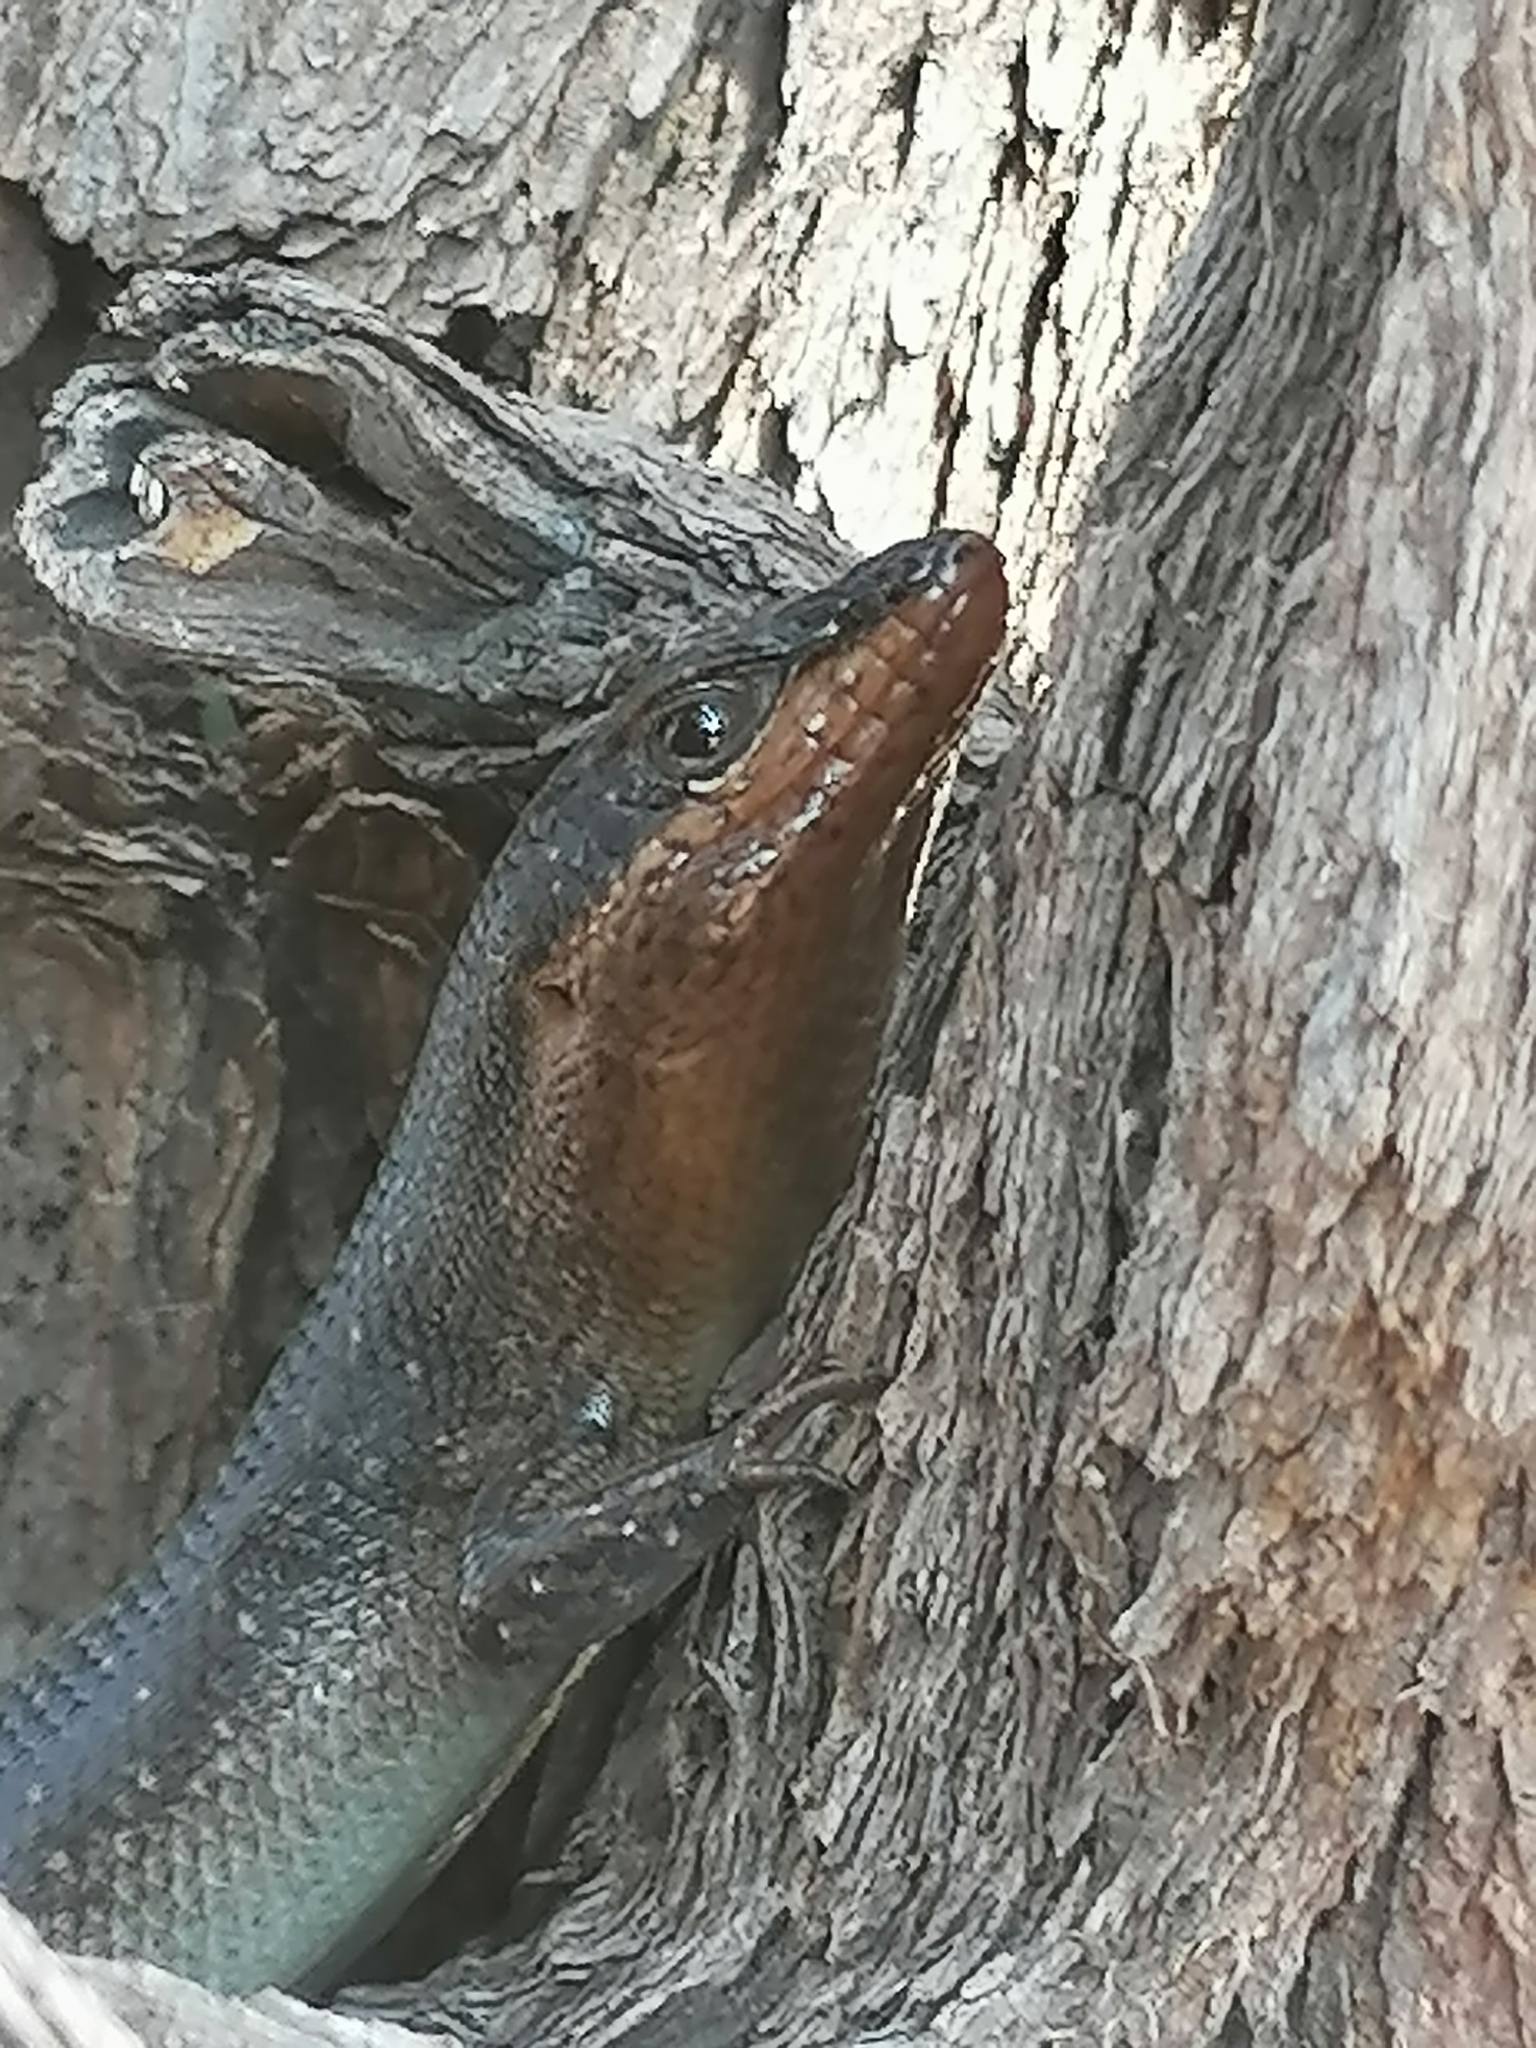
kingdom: Animalia
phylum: Chordata
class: Squamata
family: Scincidae
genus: Trachylepis
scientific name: Trachylepis sparsa
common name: Karasburg tree skink
